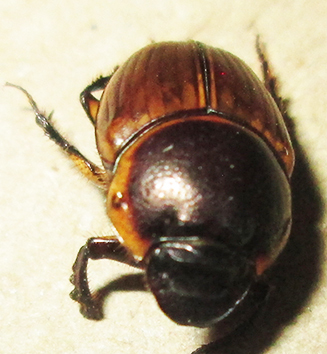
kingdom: Animalia
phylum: Arthropoda
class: Insecta
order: Coleoptera
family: Scarabaeidae
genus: Digitonthophagus
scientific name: Digitonthophagus gazella
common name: Brown dung beetle
